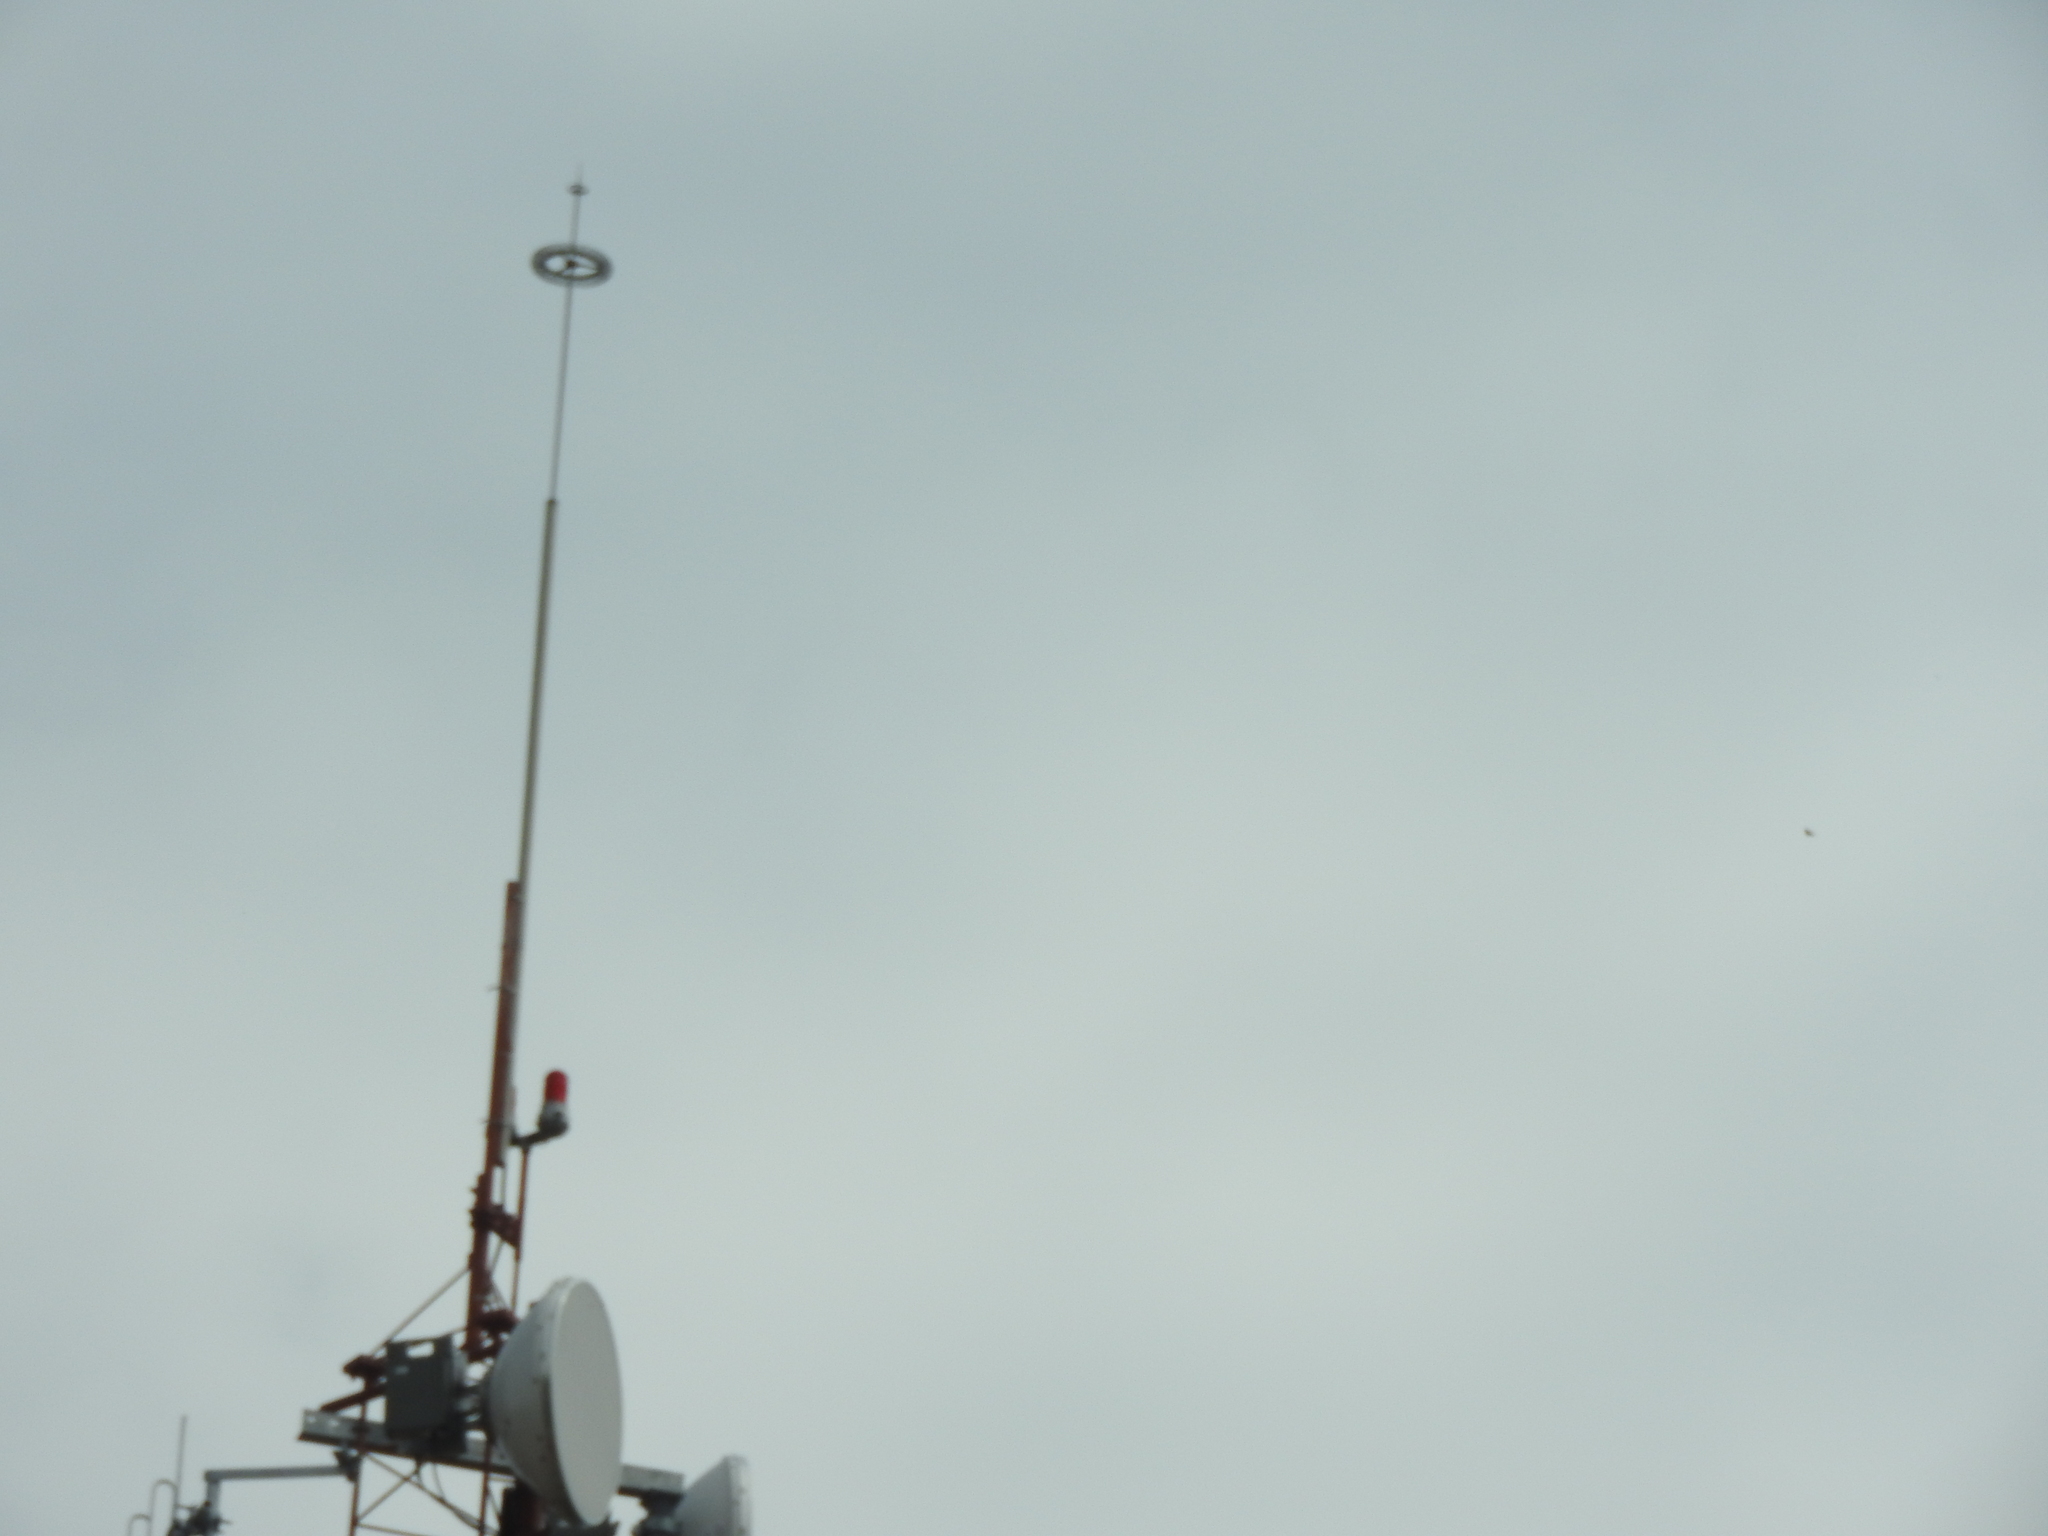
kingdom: Animalia
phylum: Arthropoda
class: Insecta
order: Lepidoptera
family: Nymphalidae
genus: Danaus
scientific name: Danaus plexippus
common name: Monarch
